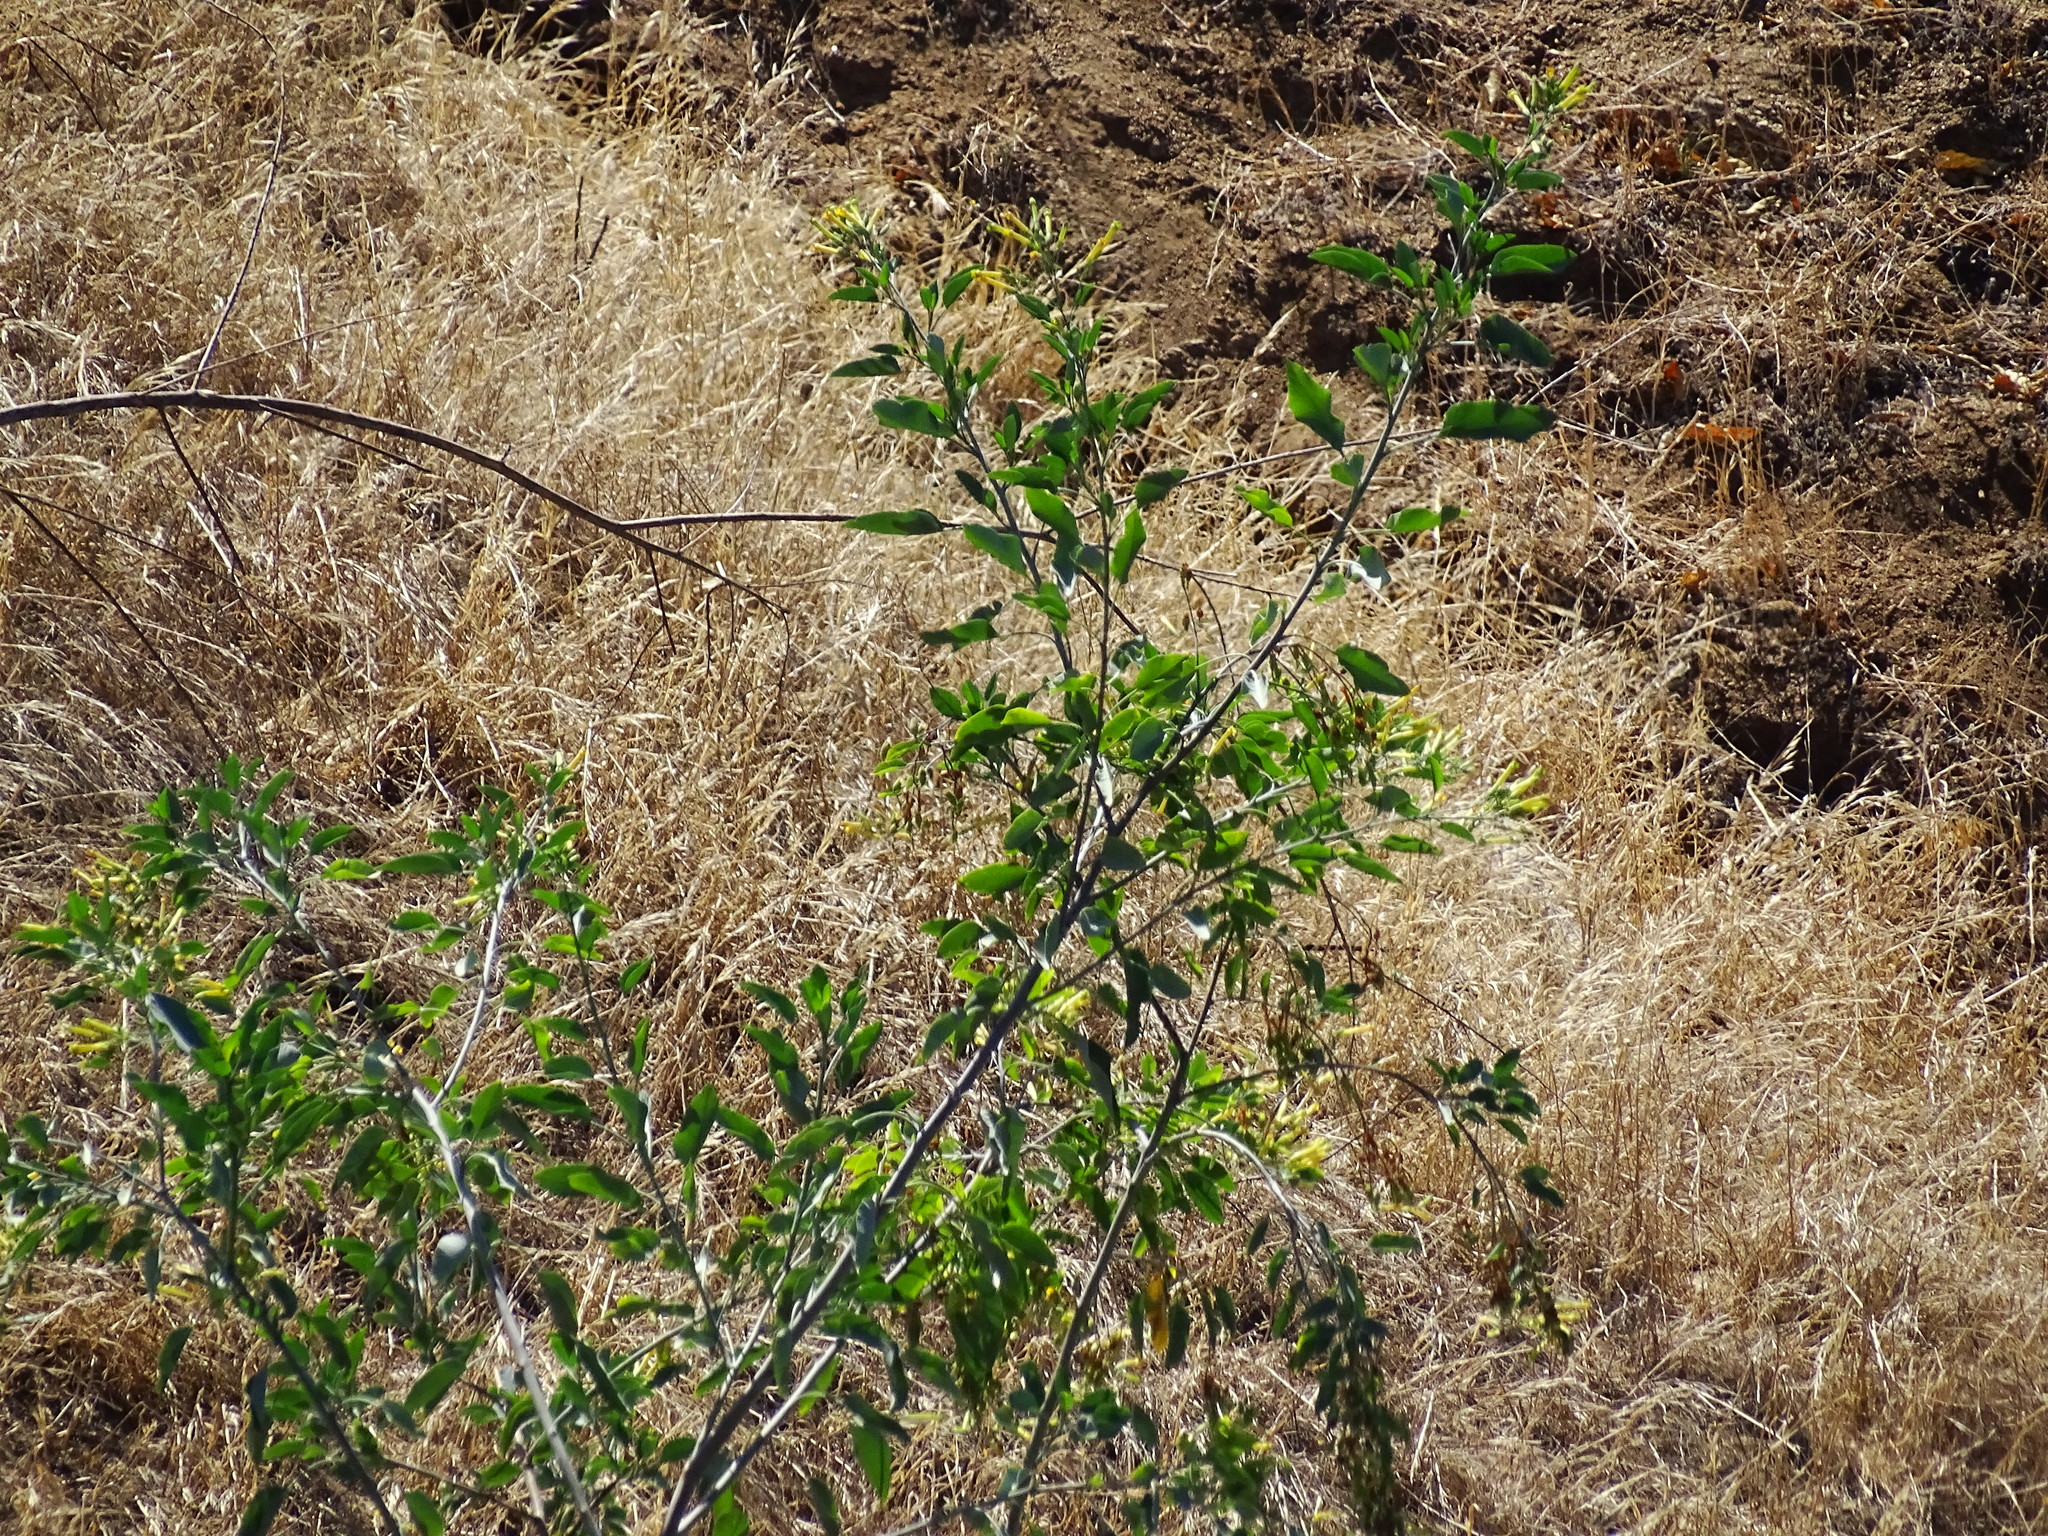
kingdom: Plantae
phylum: Tracheophyta
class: Magnoliopsida
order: Solanales
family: Solanaceae
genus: Nicotiana
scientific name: Nicotiana glauca
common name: Tree tobacco
